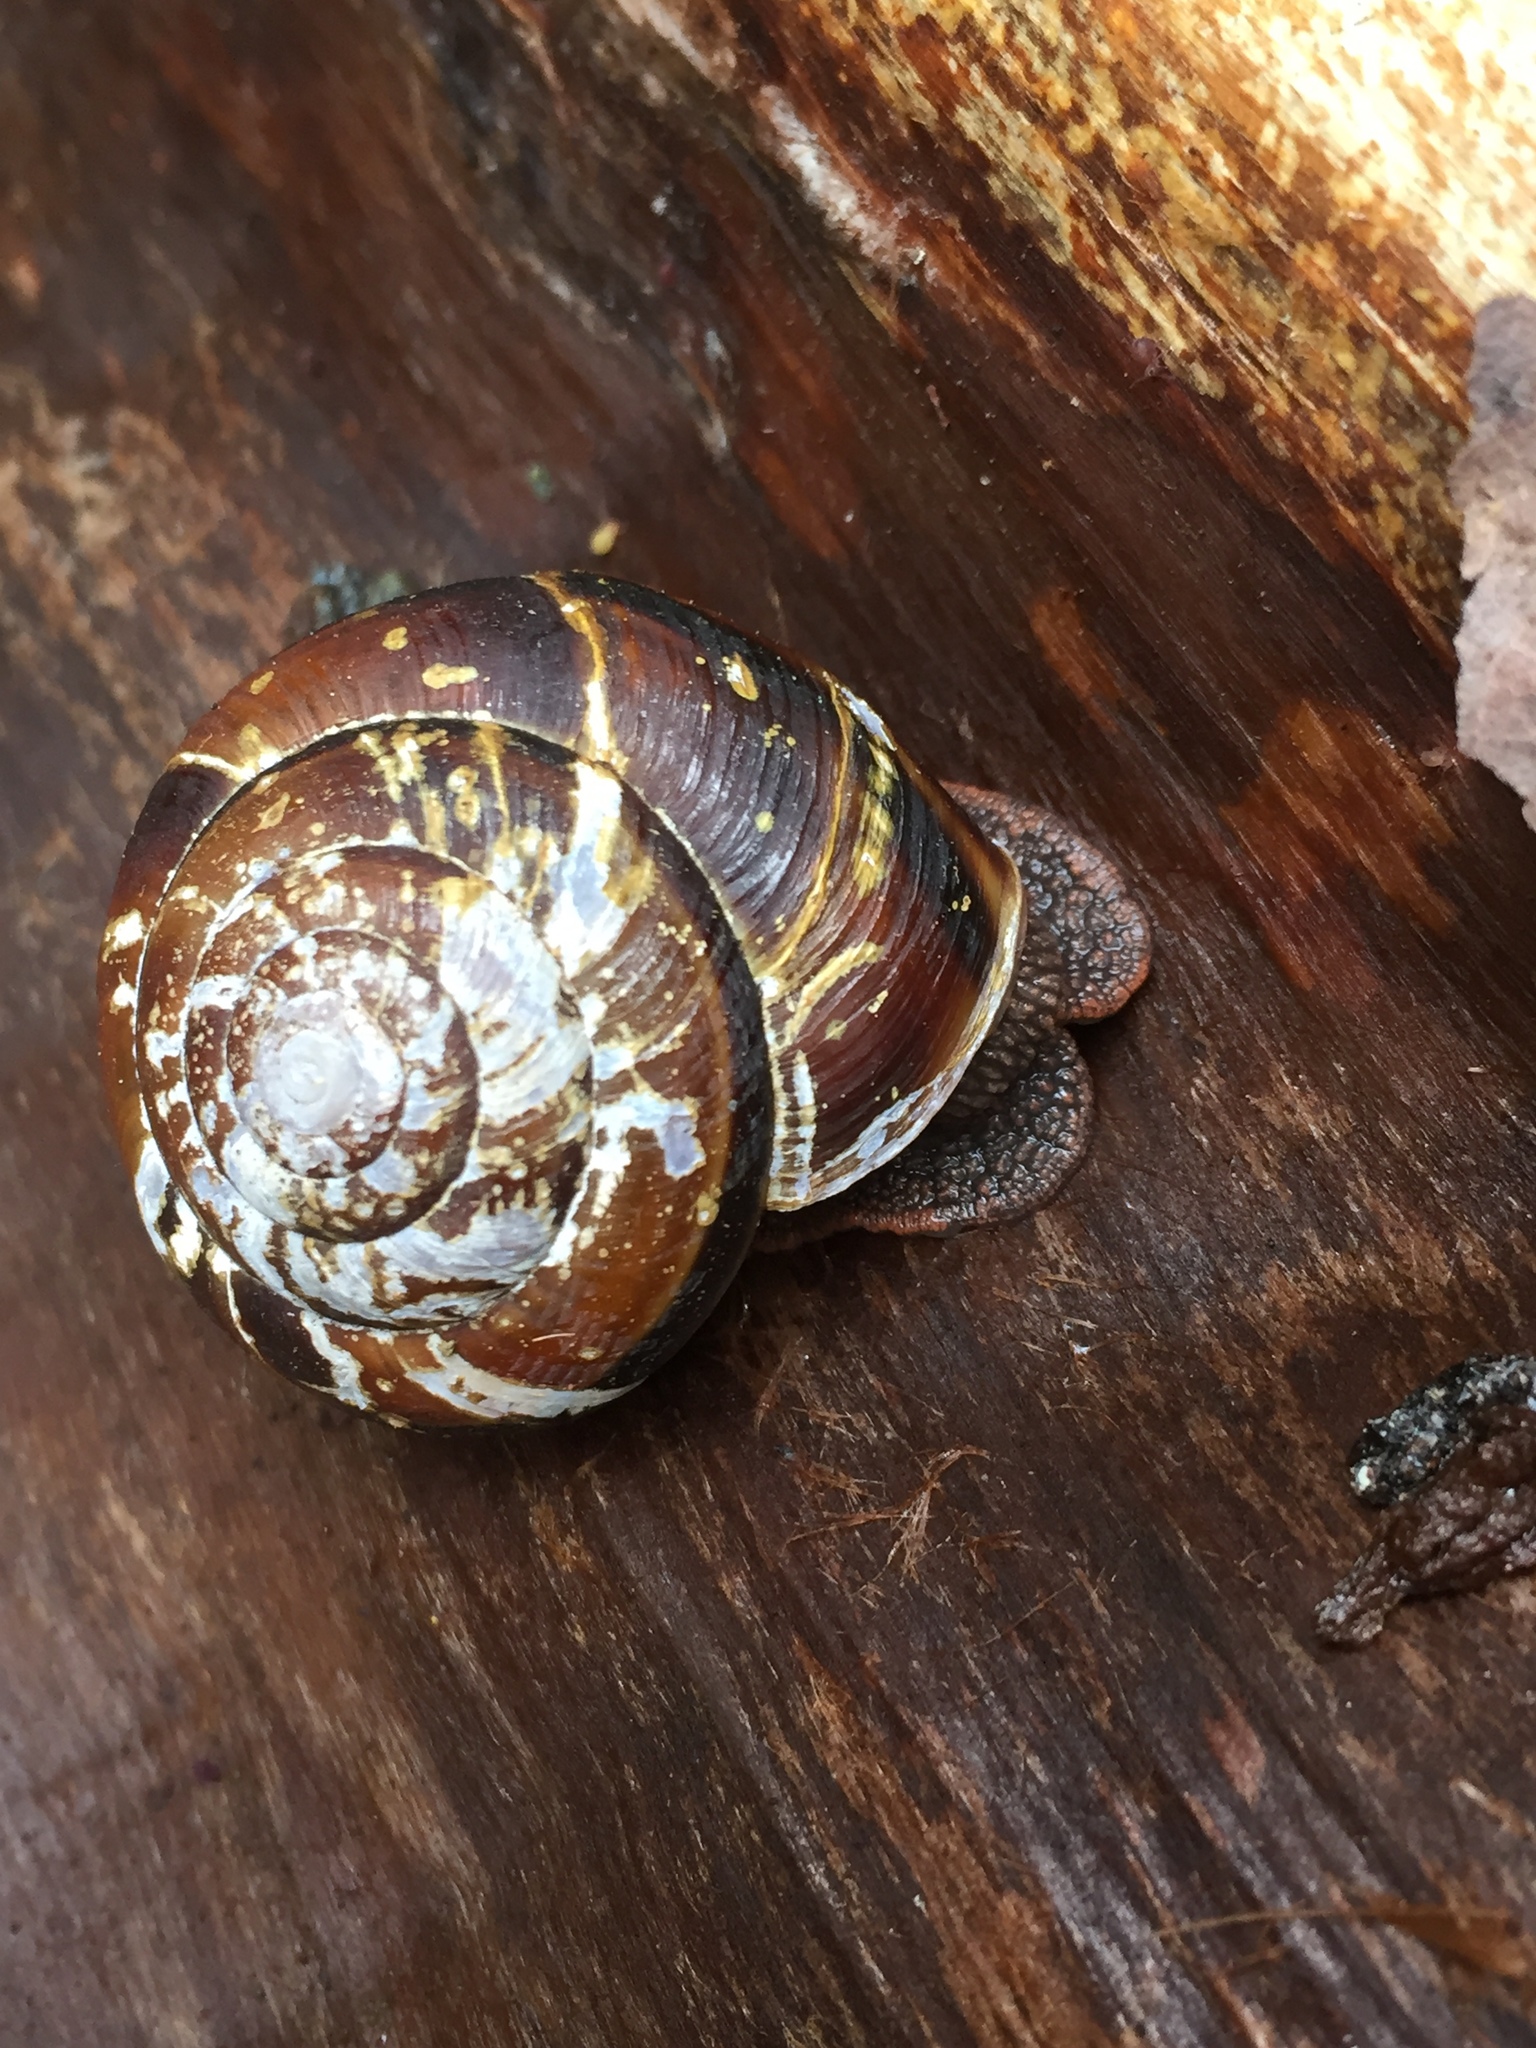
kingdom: Animalia
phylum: Mollusca
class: Gastropoda
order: Stylommatophora
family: Xanthonychidae
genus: Monadenia
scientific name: Monadenia fidelis
